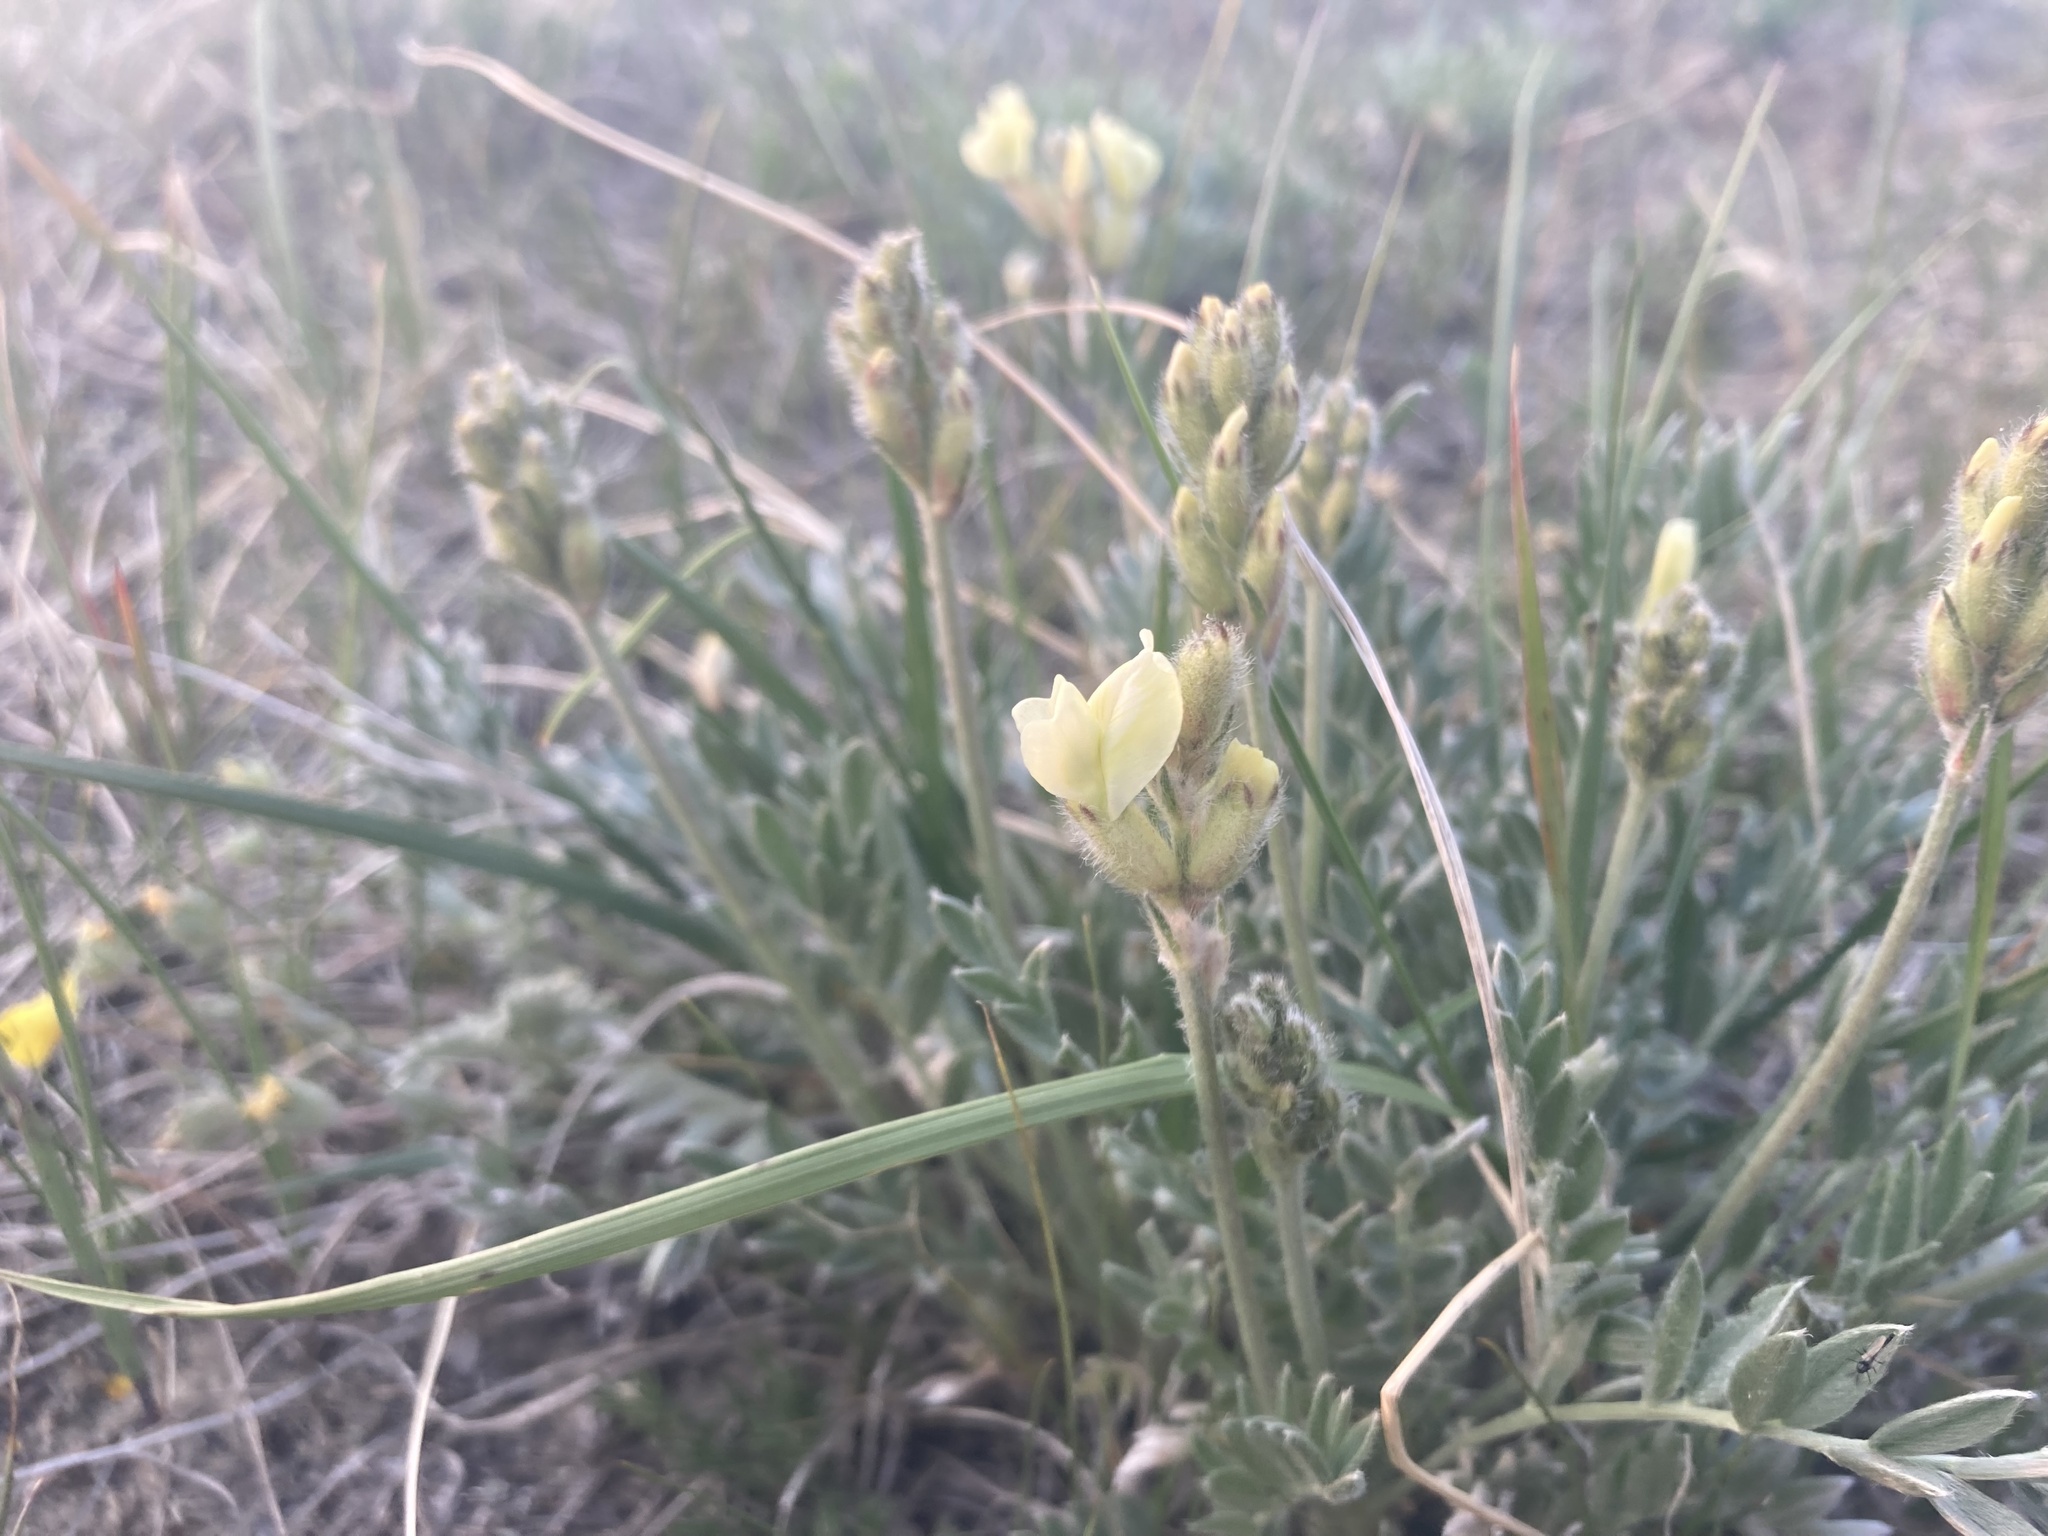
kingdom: Plantae
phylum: Tracheophyta
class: Magnoliopsida
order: Fabales
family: Fabaceae
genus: Oxytropis
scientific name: Oxytropis sericea
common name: Silky locoweed
